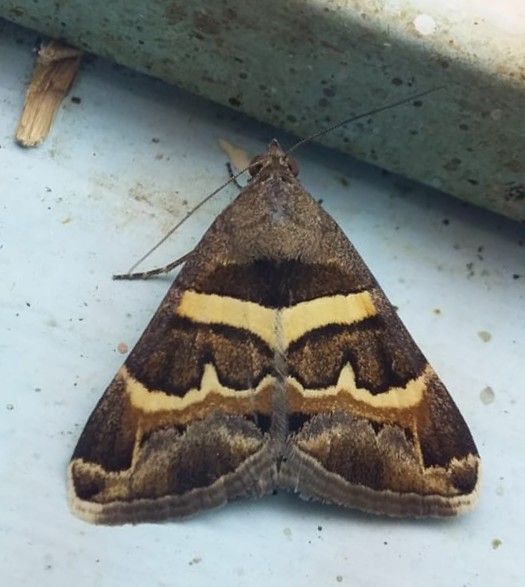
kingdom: Animalia
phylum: Arthropoda
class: Insecta
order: Lepidoptera
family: Erebidae
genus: Grammodes
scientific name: Grammodes stolida
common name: Geometrician
